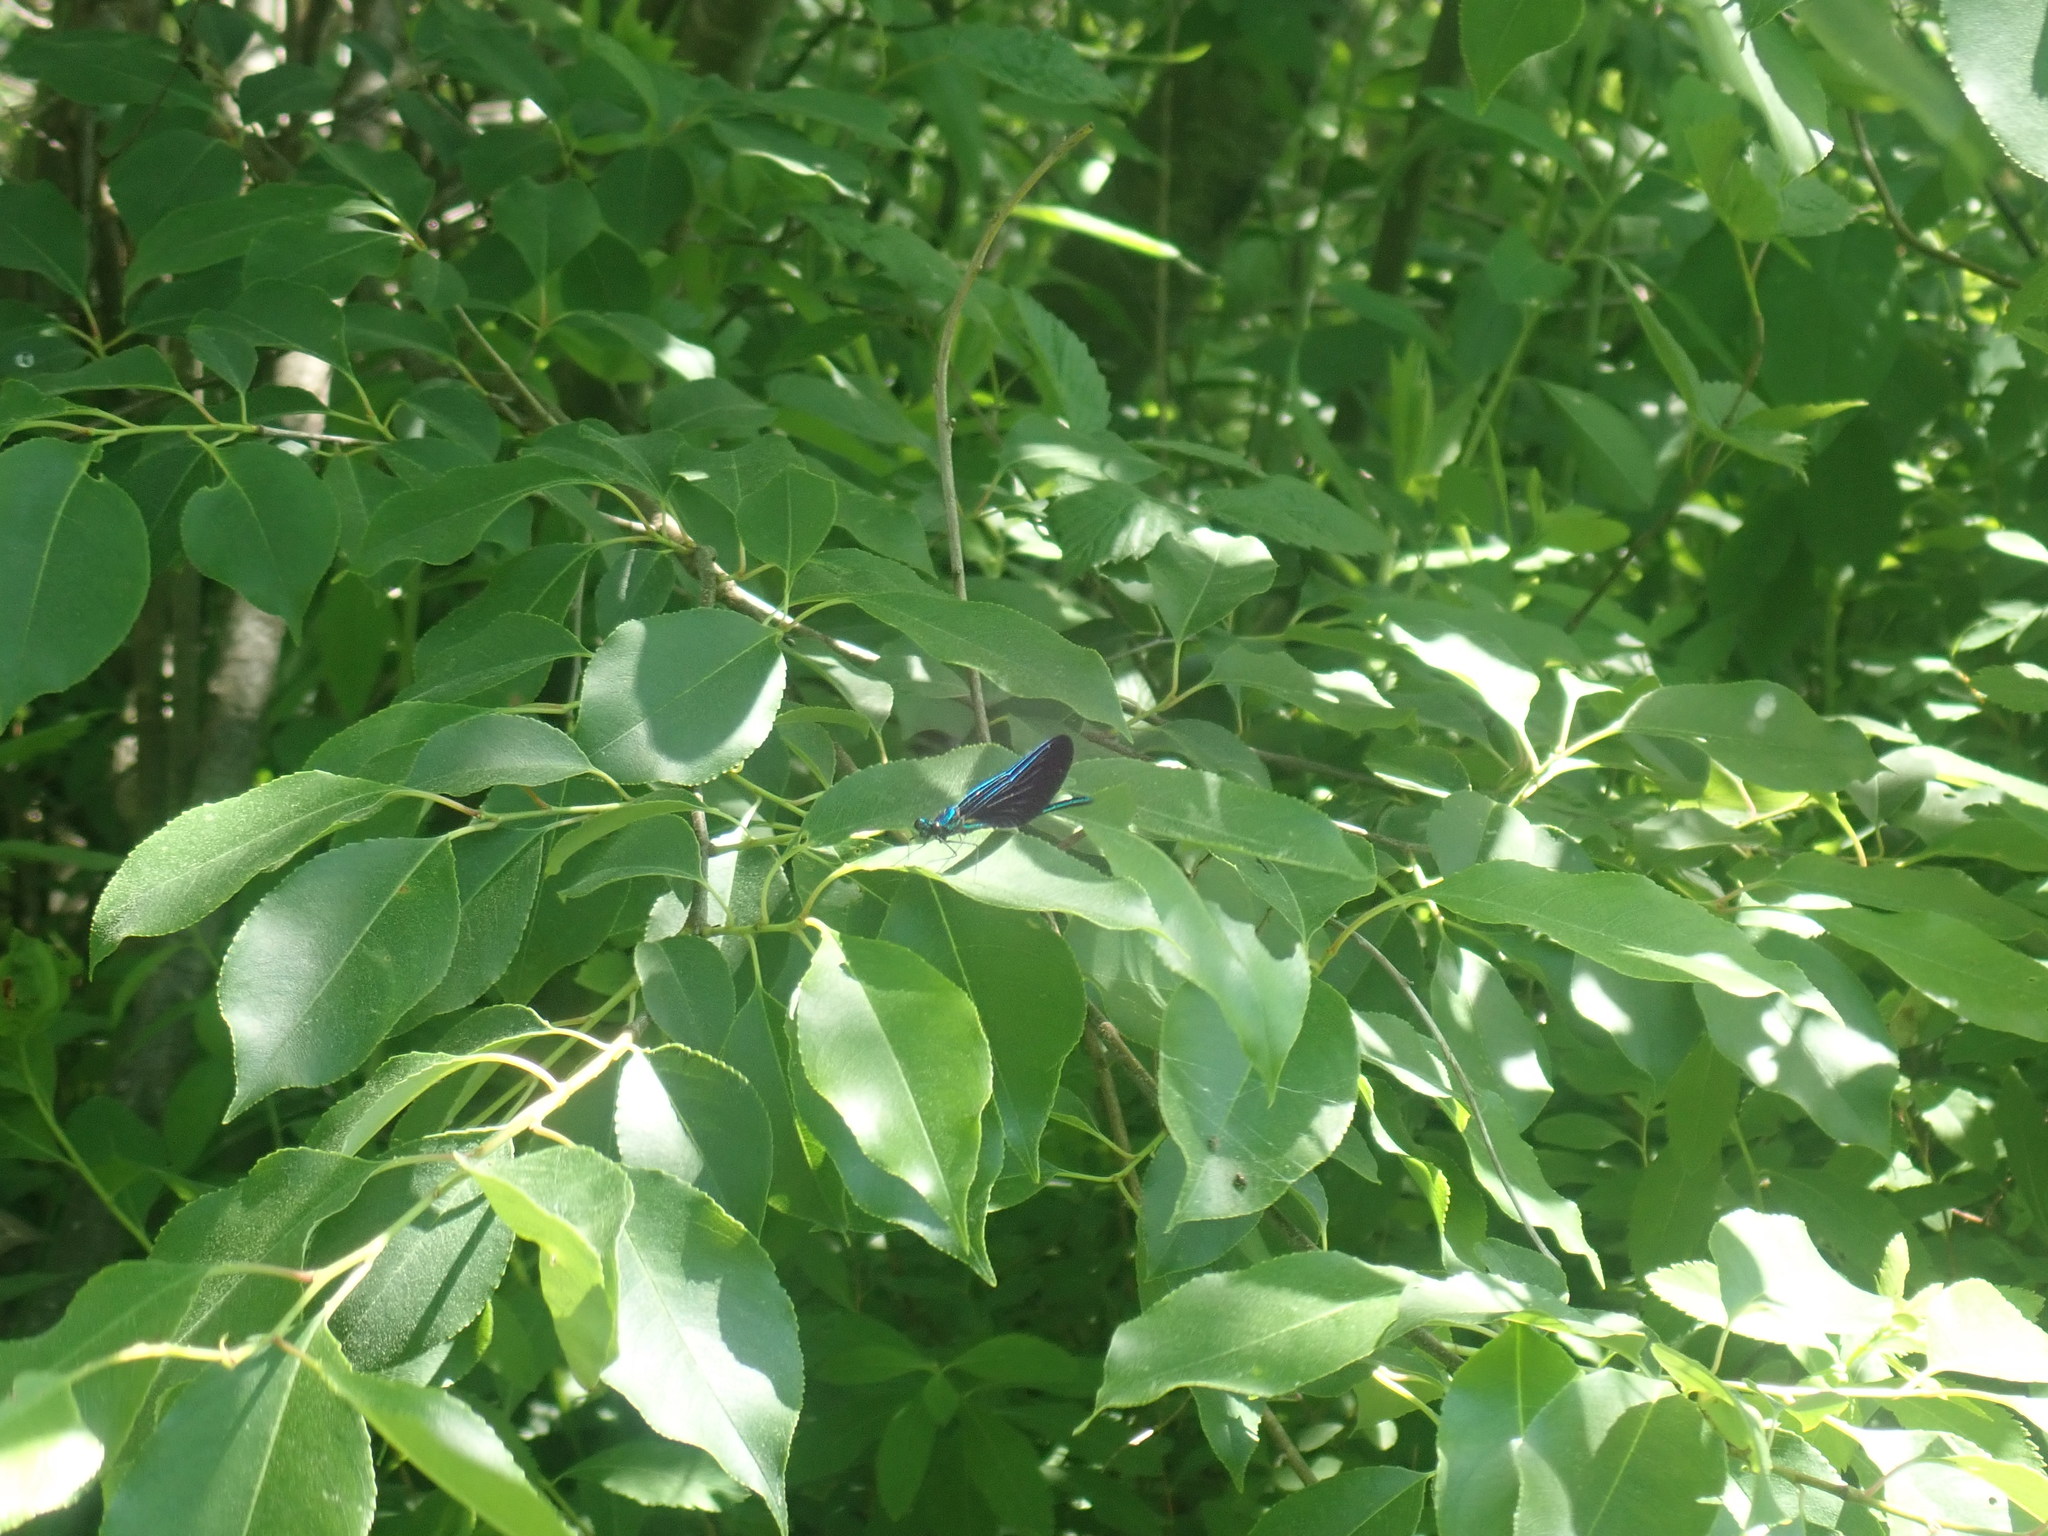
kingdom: Animalia
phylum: Arthropoda
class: Insecta
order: Odonata
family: Calopterygidae
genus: Calopteryx
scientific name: Calopteryx maculata
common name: Ebony jewelwing
